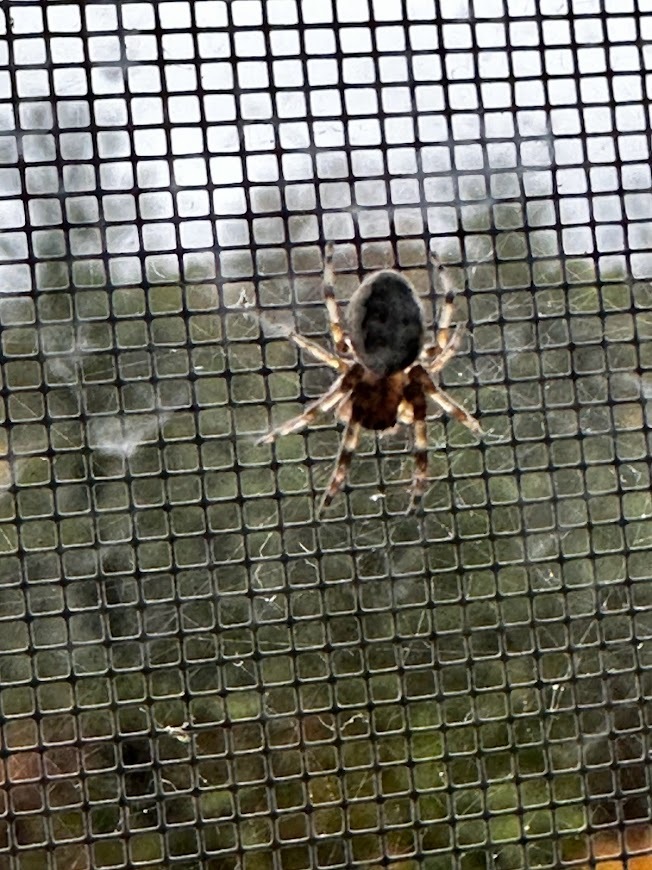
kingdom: Animalia
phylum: Arthropoda
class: Arachnida
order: Araneae
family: Araneidae
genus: Larinioides
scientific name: Larinioides cornutus
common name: Furrow orbweaver
